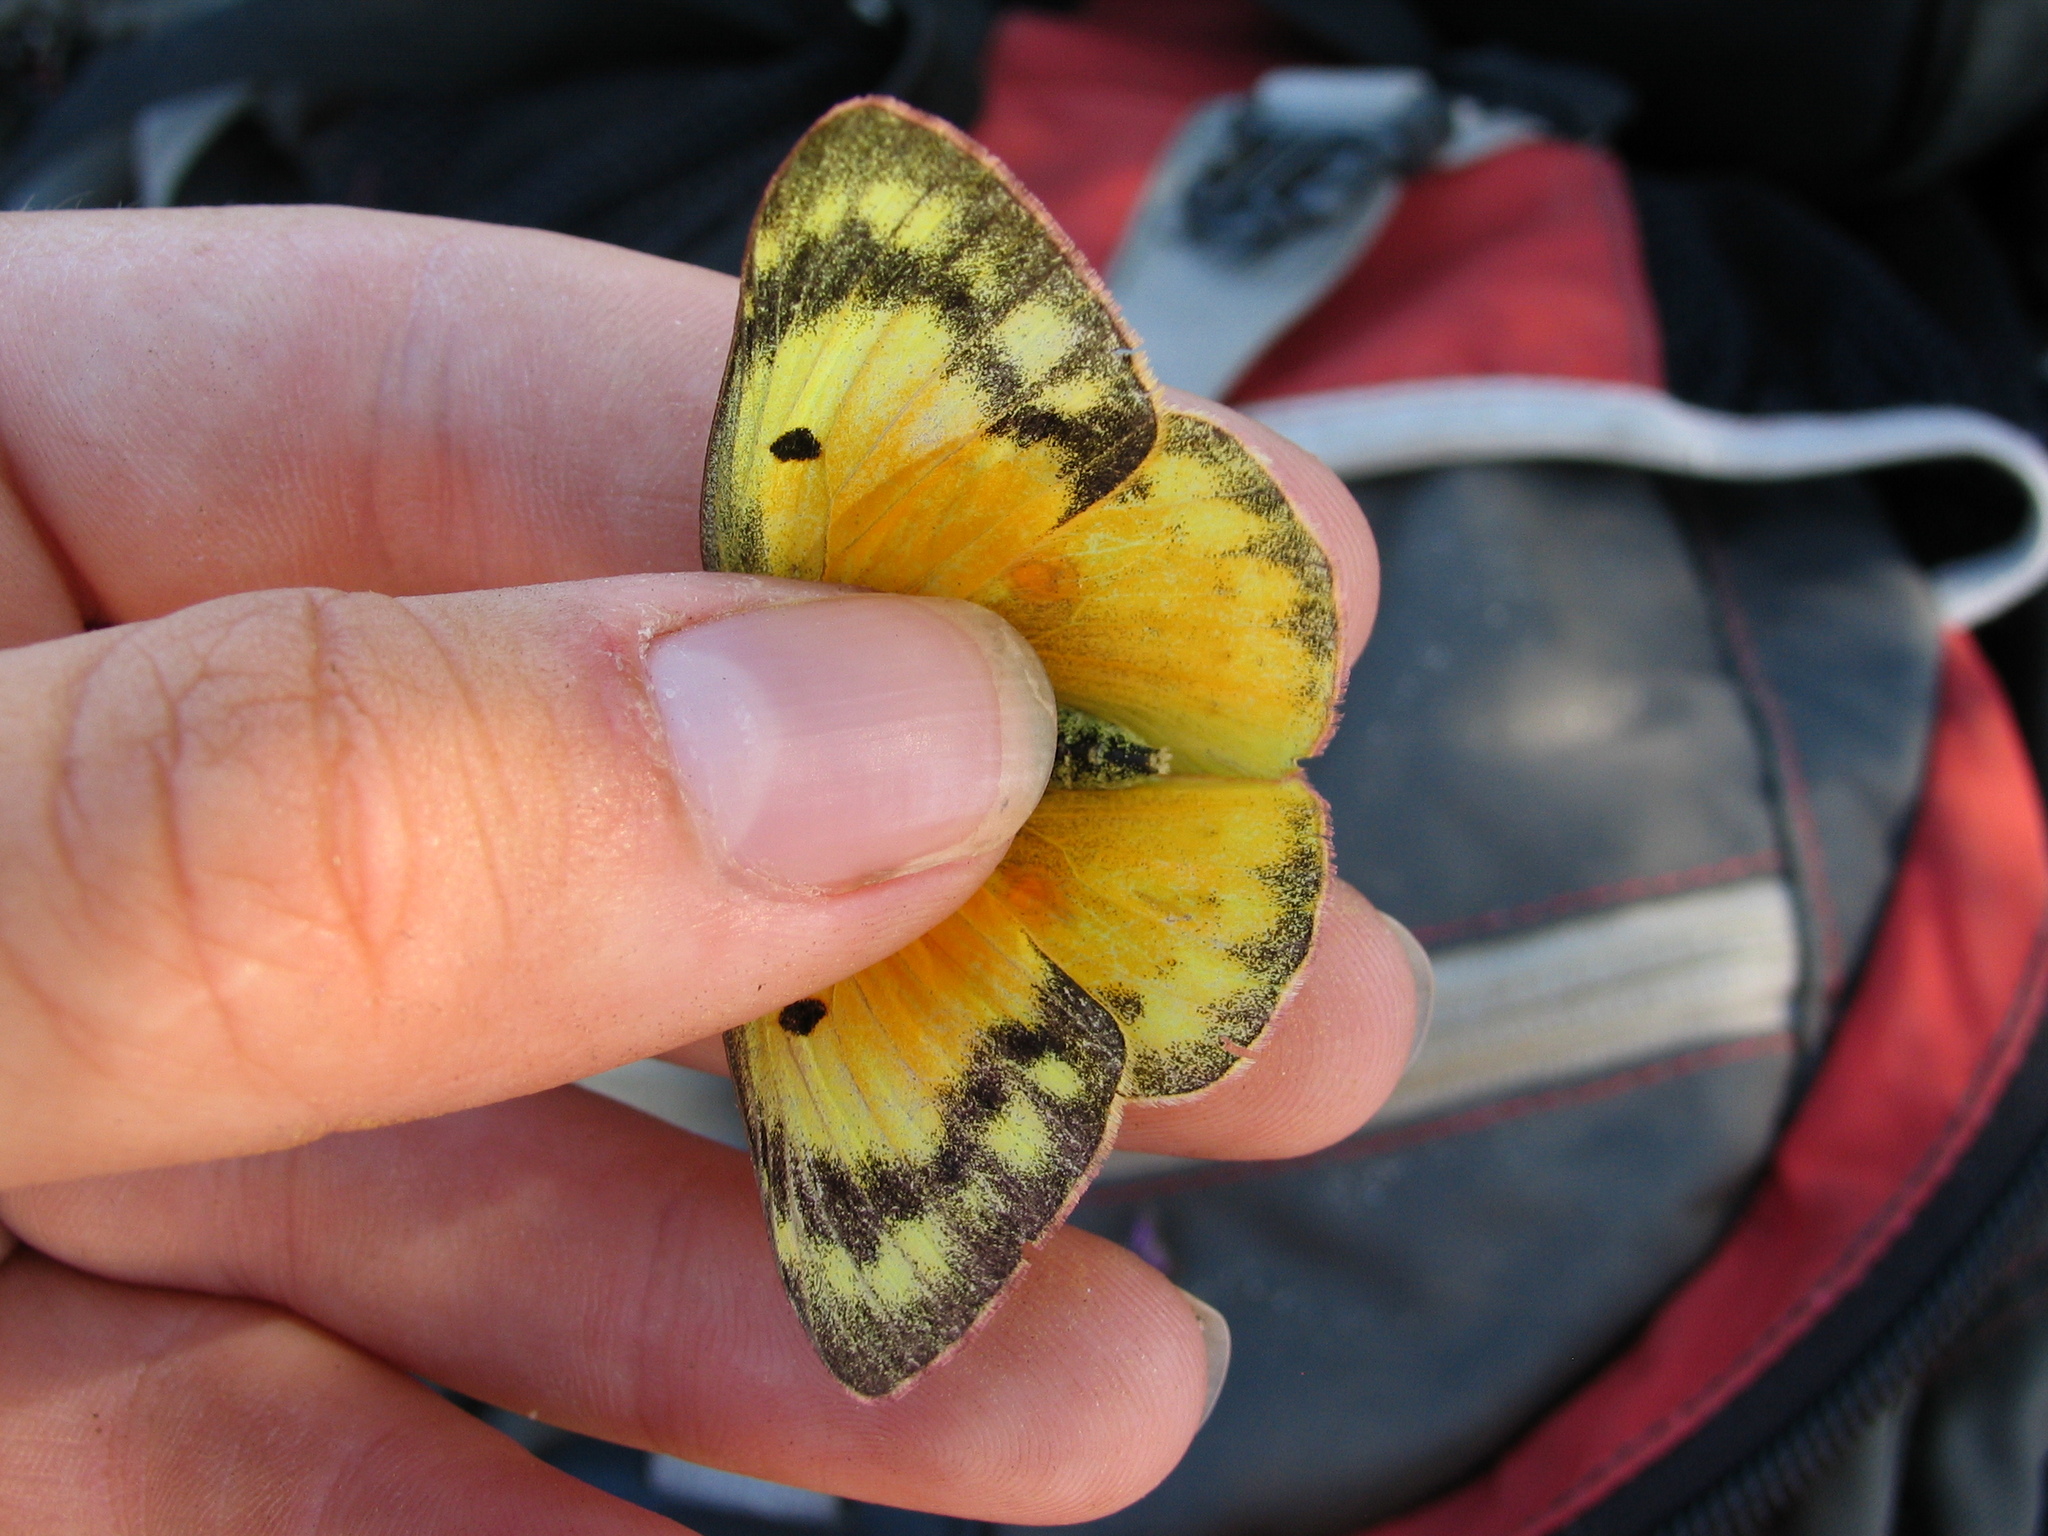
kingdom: Animalia
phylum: Arthropoda
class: Insecta
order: Lepidoptera
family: Pieridae
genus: Colias
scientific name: Colias eurytheme
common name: Alfalfa butterfly
